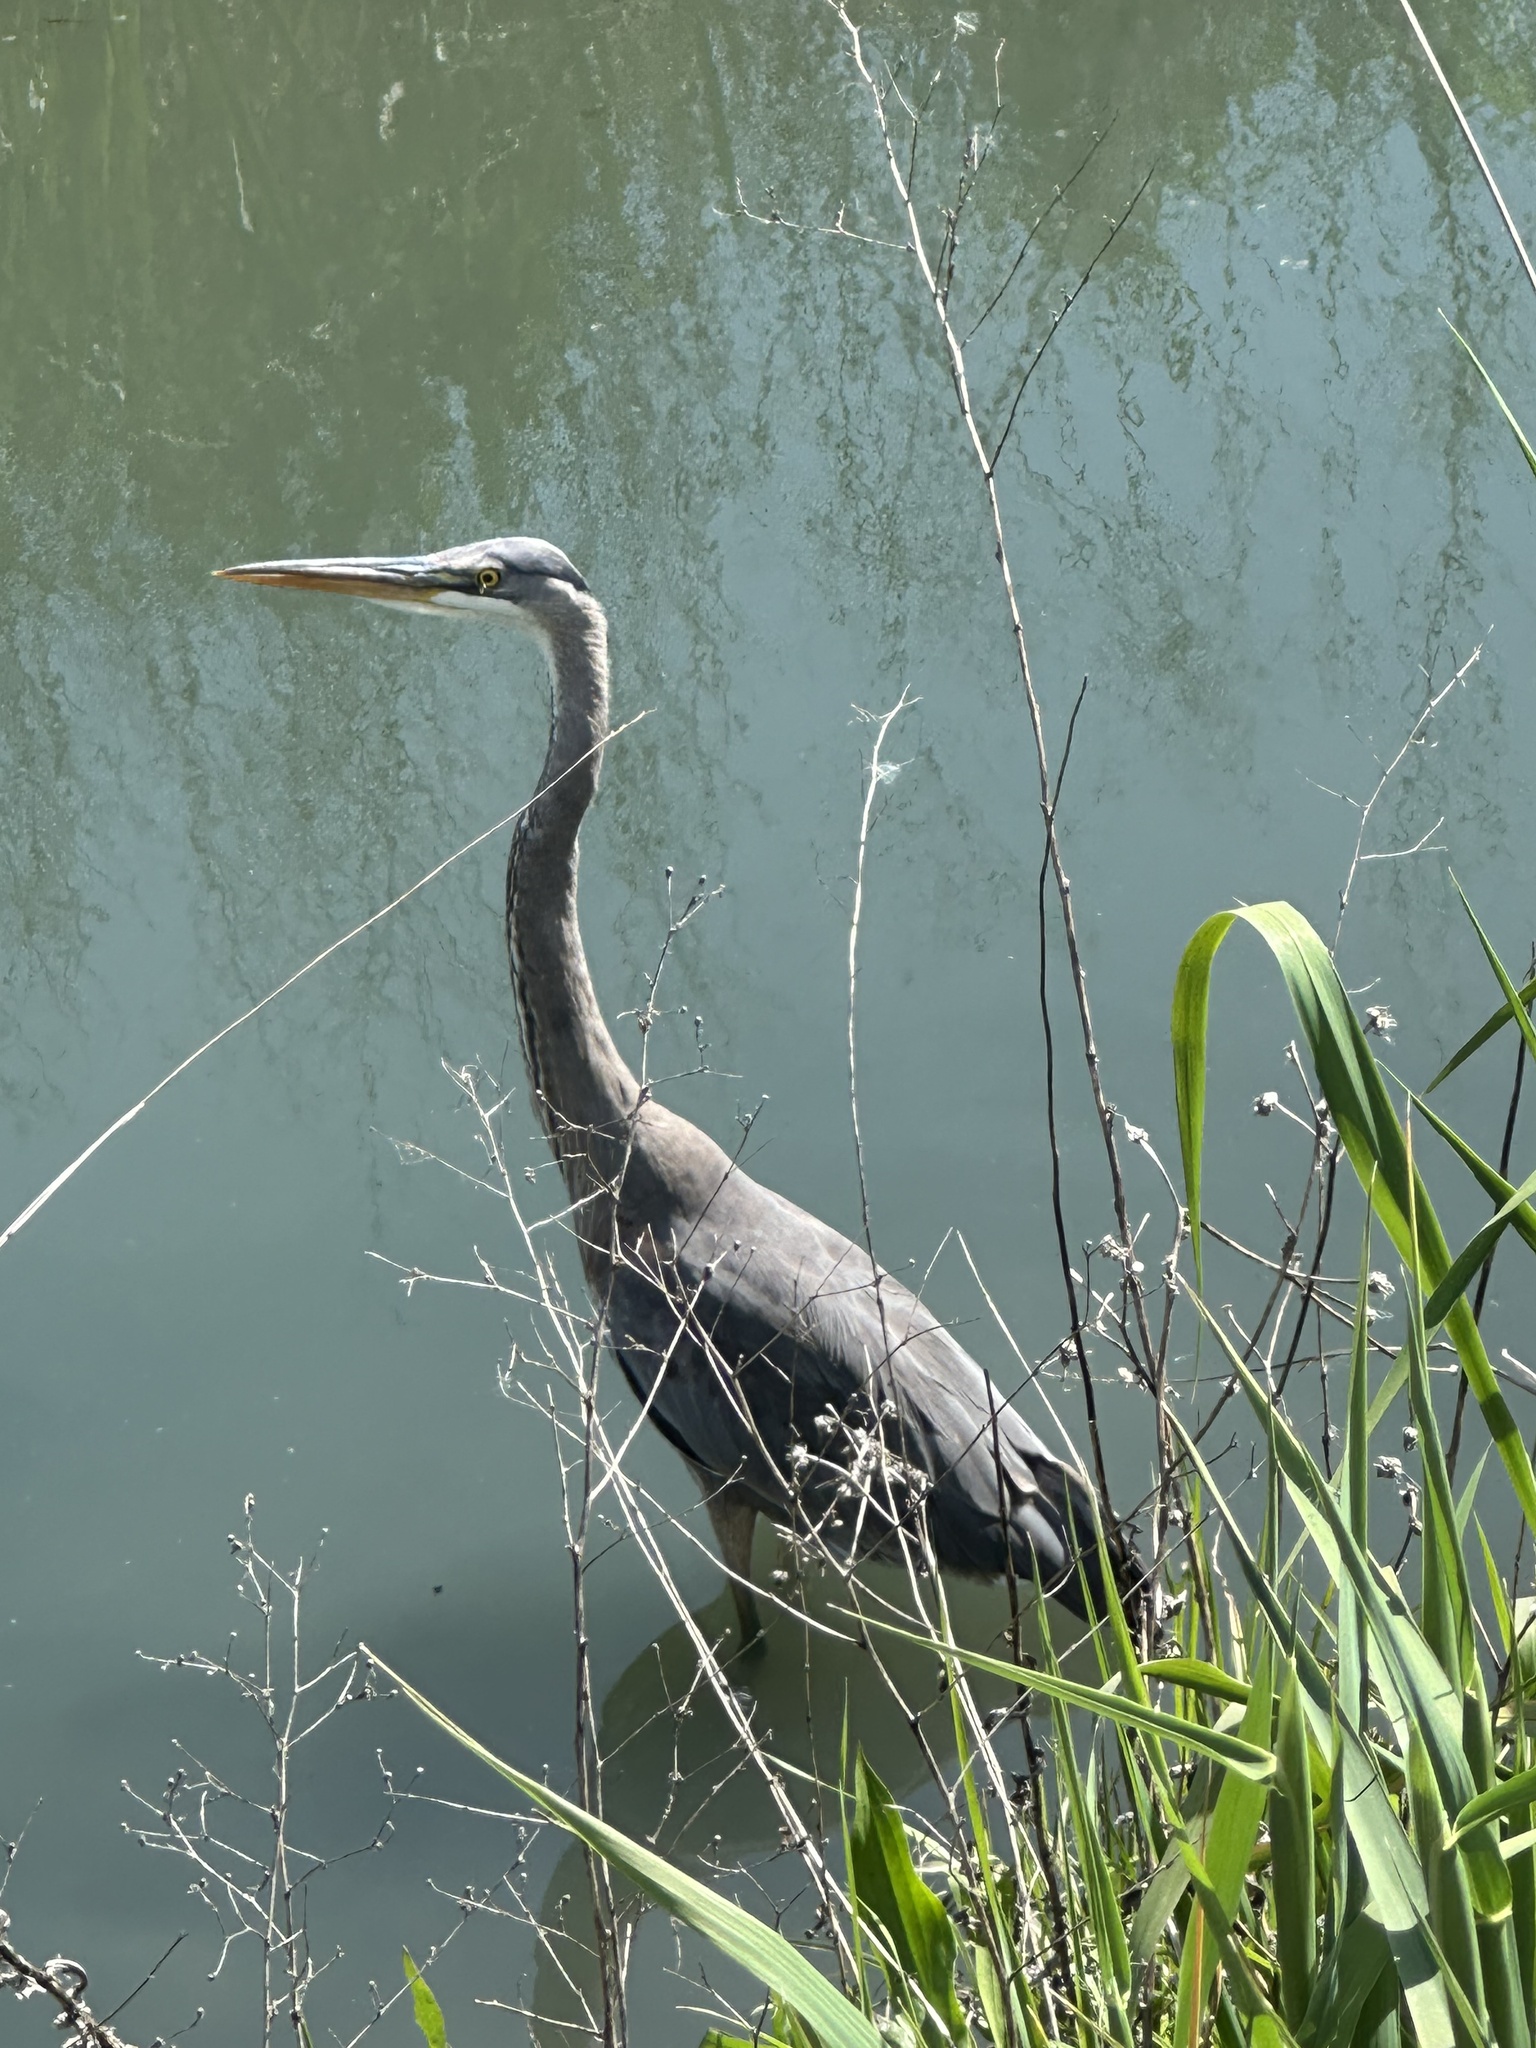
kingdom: Animalia
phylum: Chordata
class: Aves
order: Pelecaniformes
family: Ardeidae
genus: Ardea
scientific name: Ardea herodias
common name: Great blue heron
